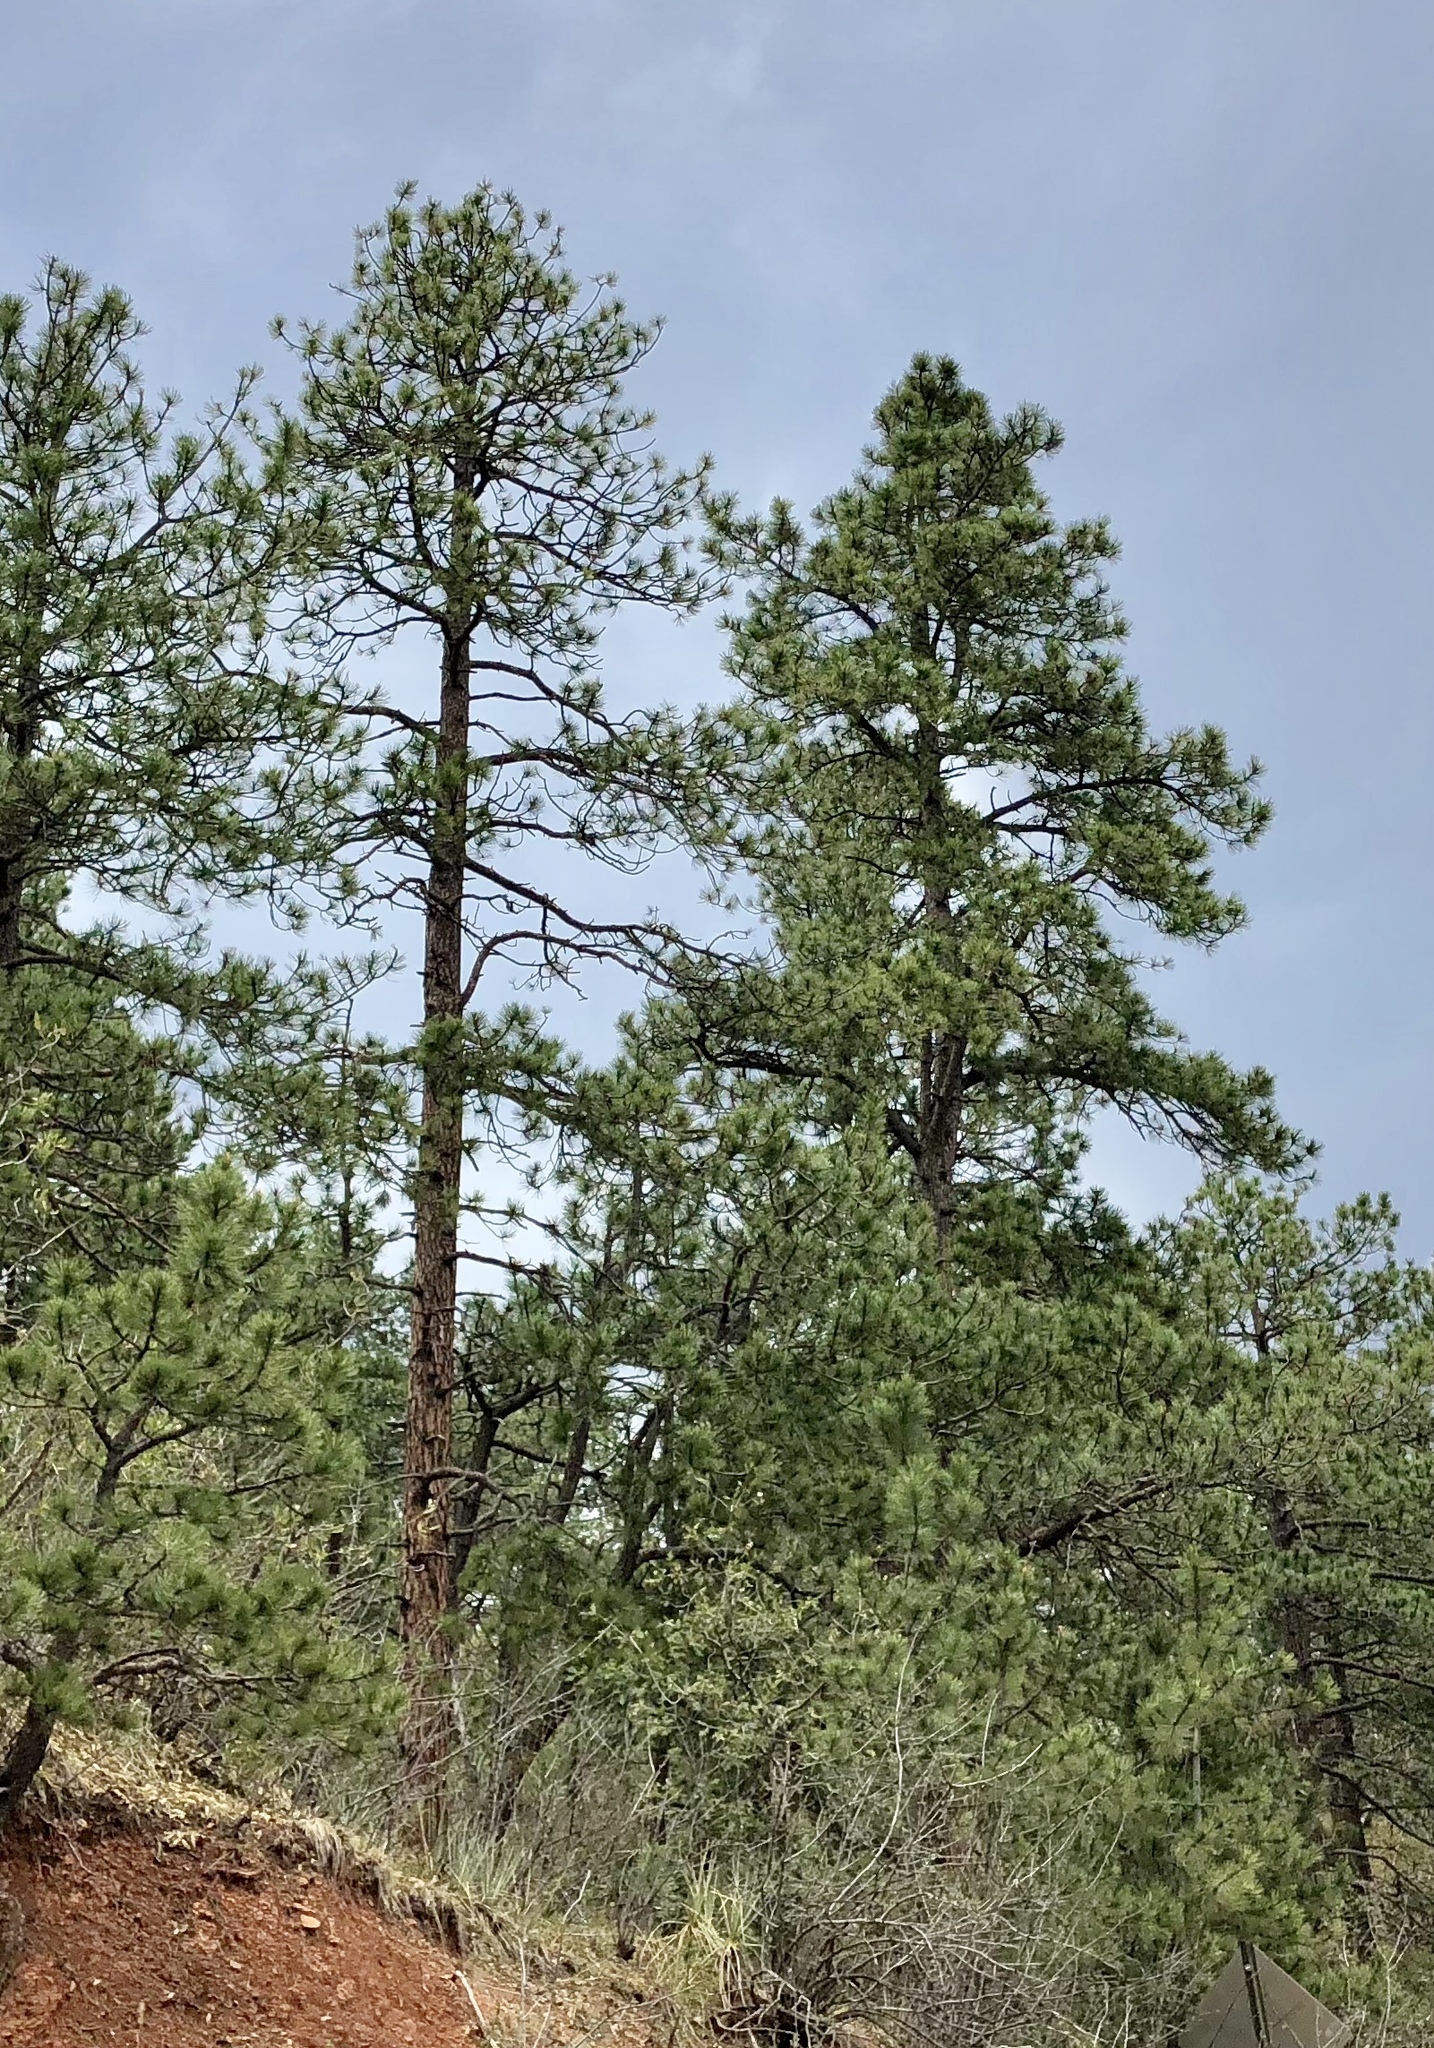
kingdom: Plantae
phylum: Tracheophyta
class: Pinopsida
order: Pinales
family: Pinaceae
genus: Pinus
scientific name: Pinus ponderosa
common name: Western yellow-pine
